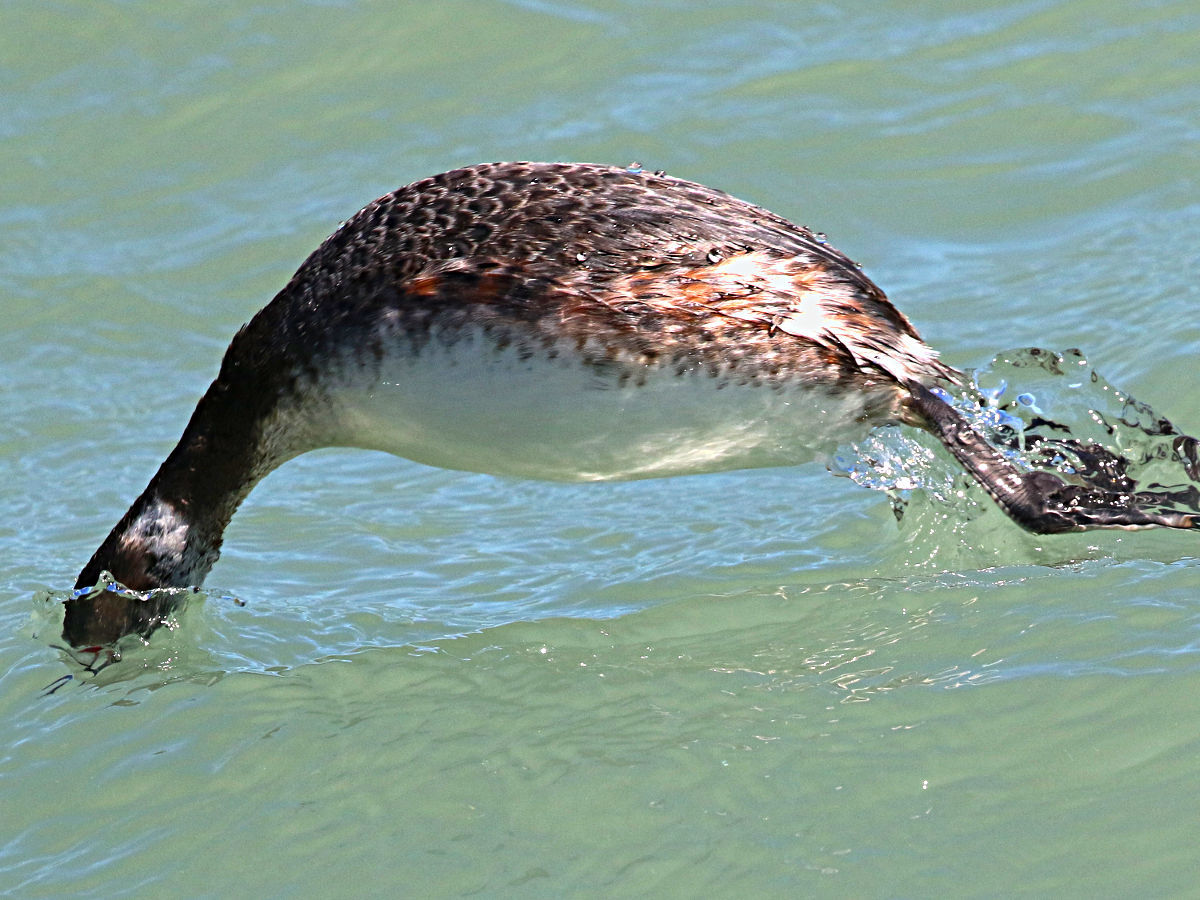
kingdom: Animalia
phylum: Chordata
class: Aves
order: Podicipediformes
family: Podicipedidae
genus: Podiceps
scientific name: Podiceps auritus
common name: Horned grebe
